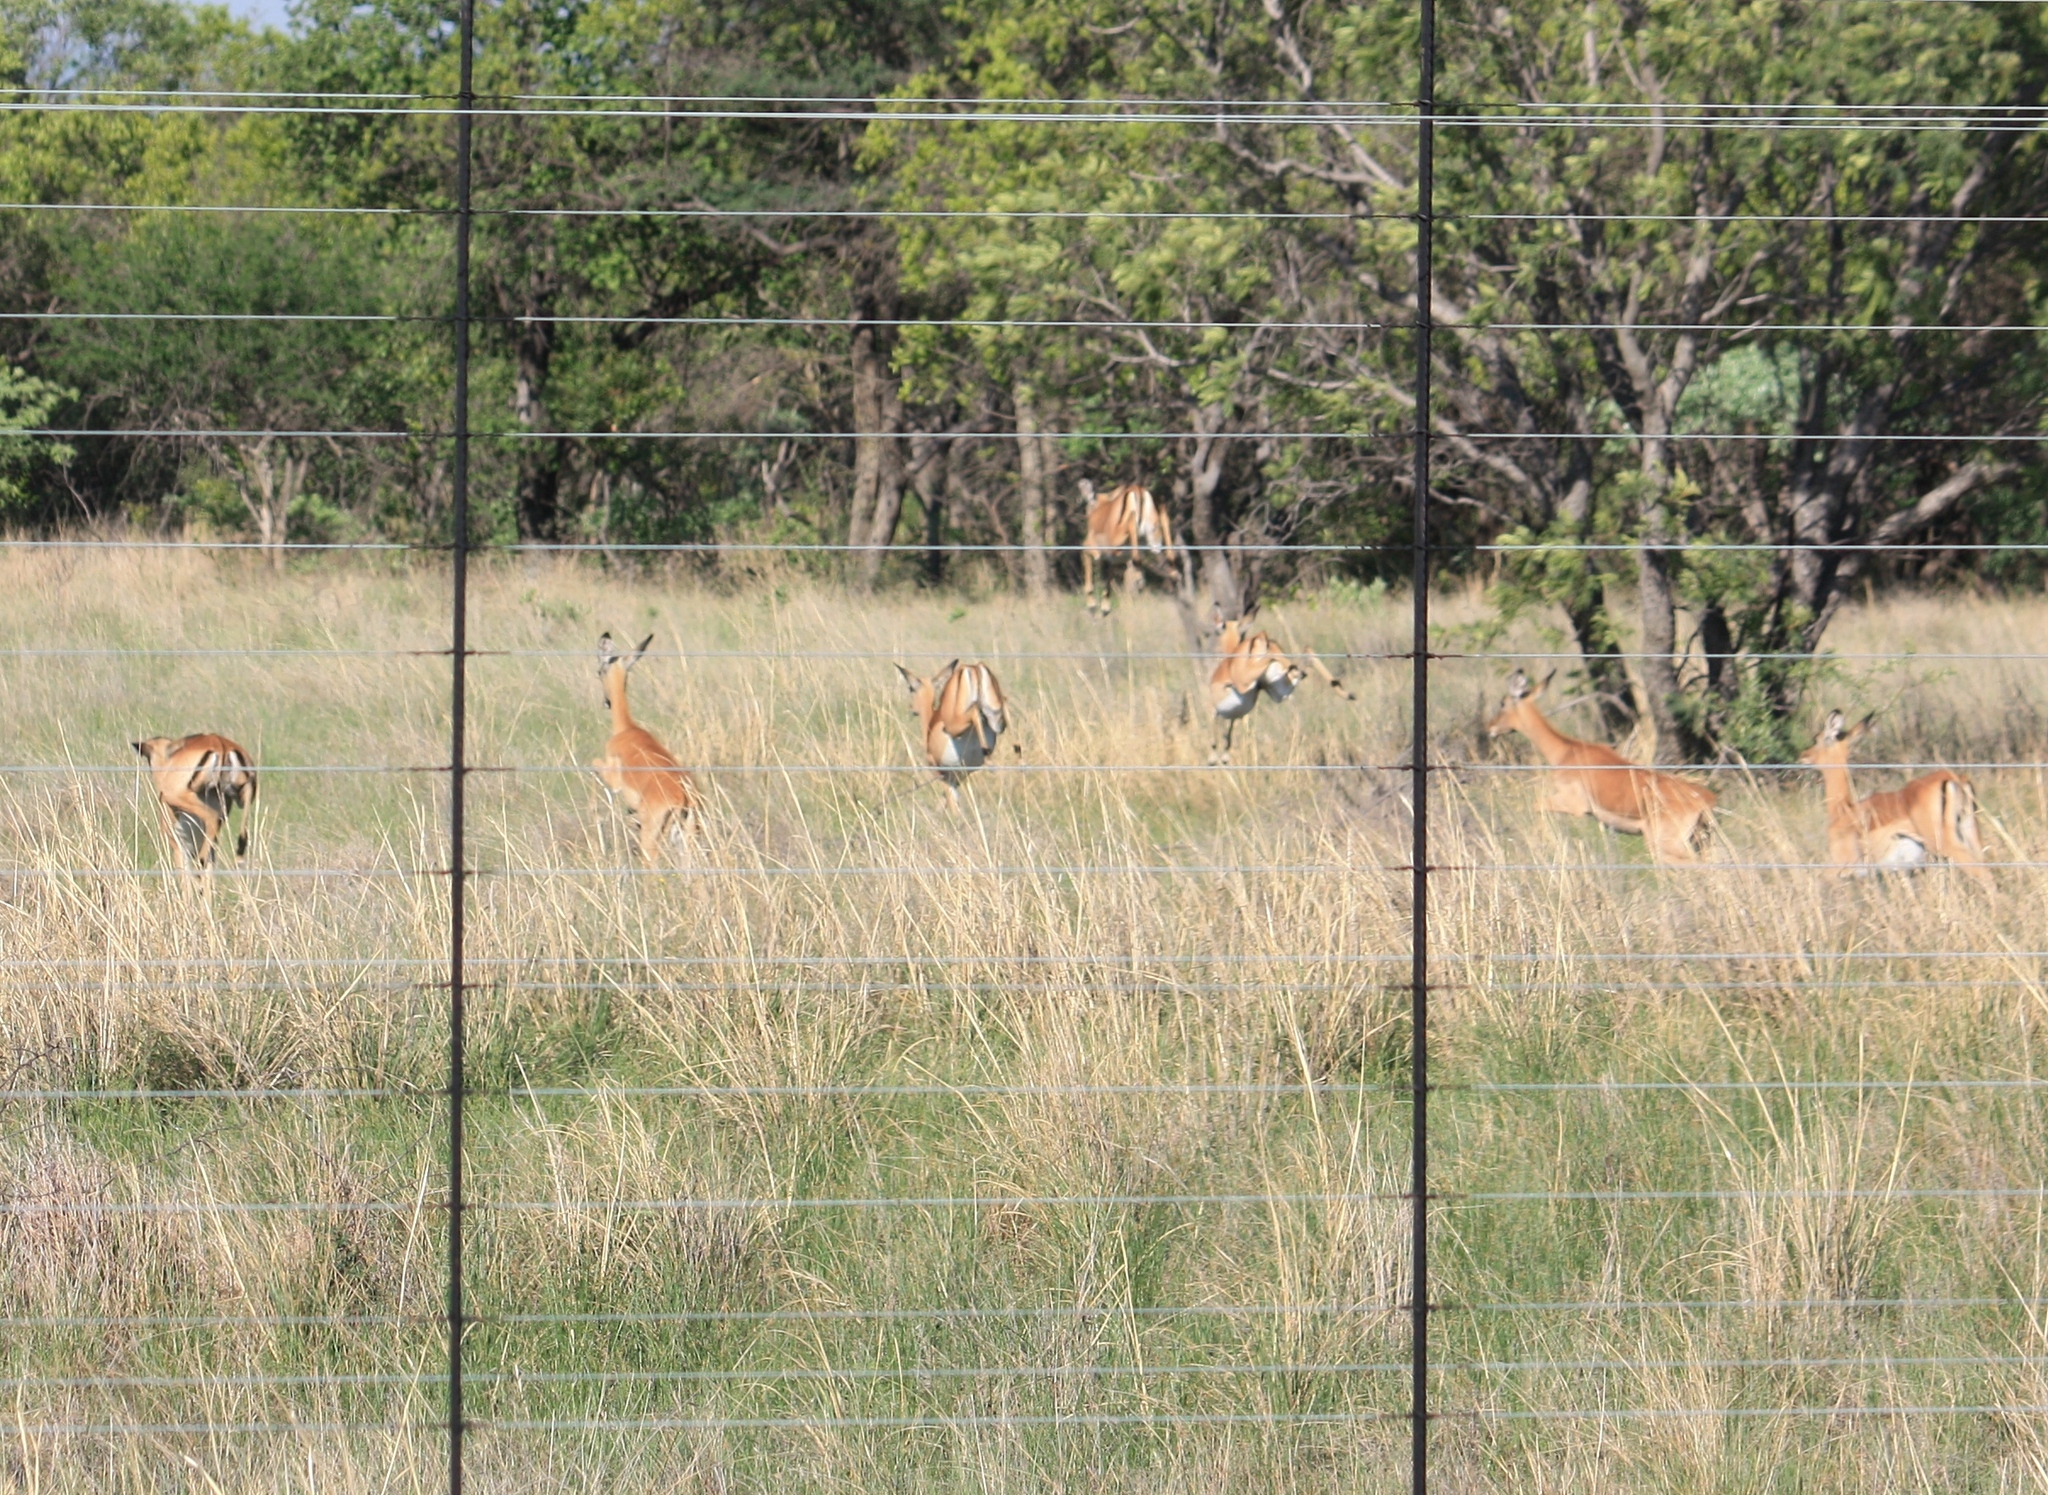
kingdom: Animalia
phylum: Chordata
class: Mammalia
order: Artiodactyla
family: Bovidae
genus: Aepyceros
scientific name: Aepyceros melampus
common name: Impala
